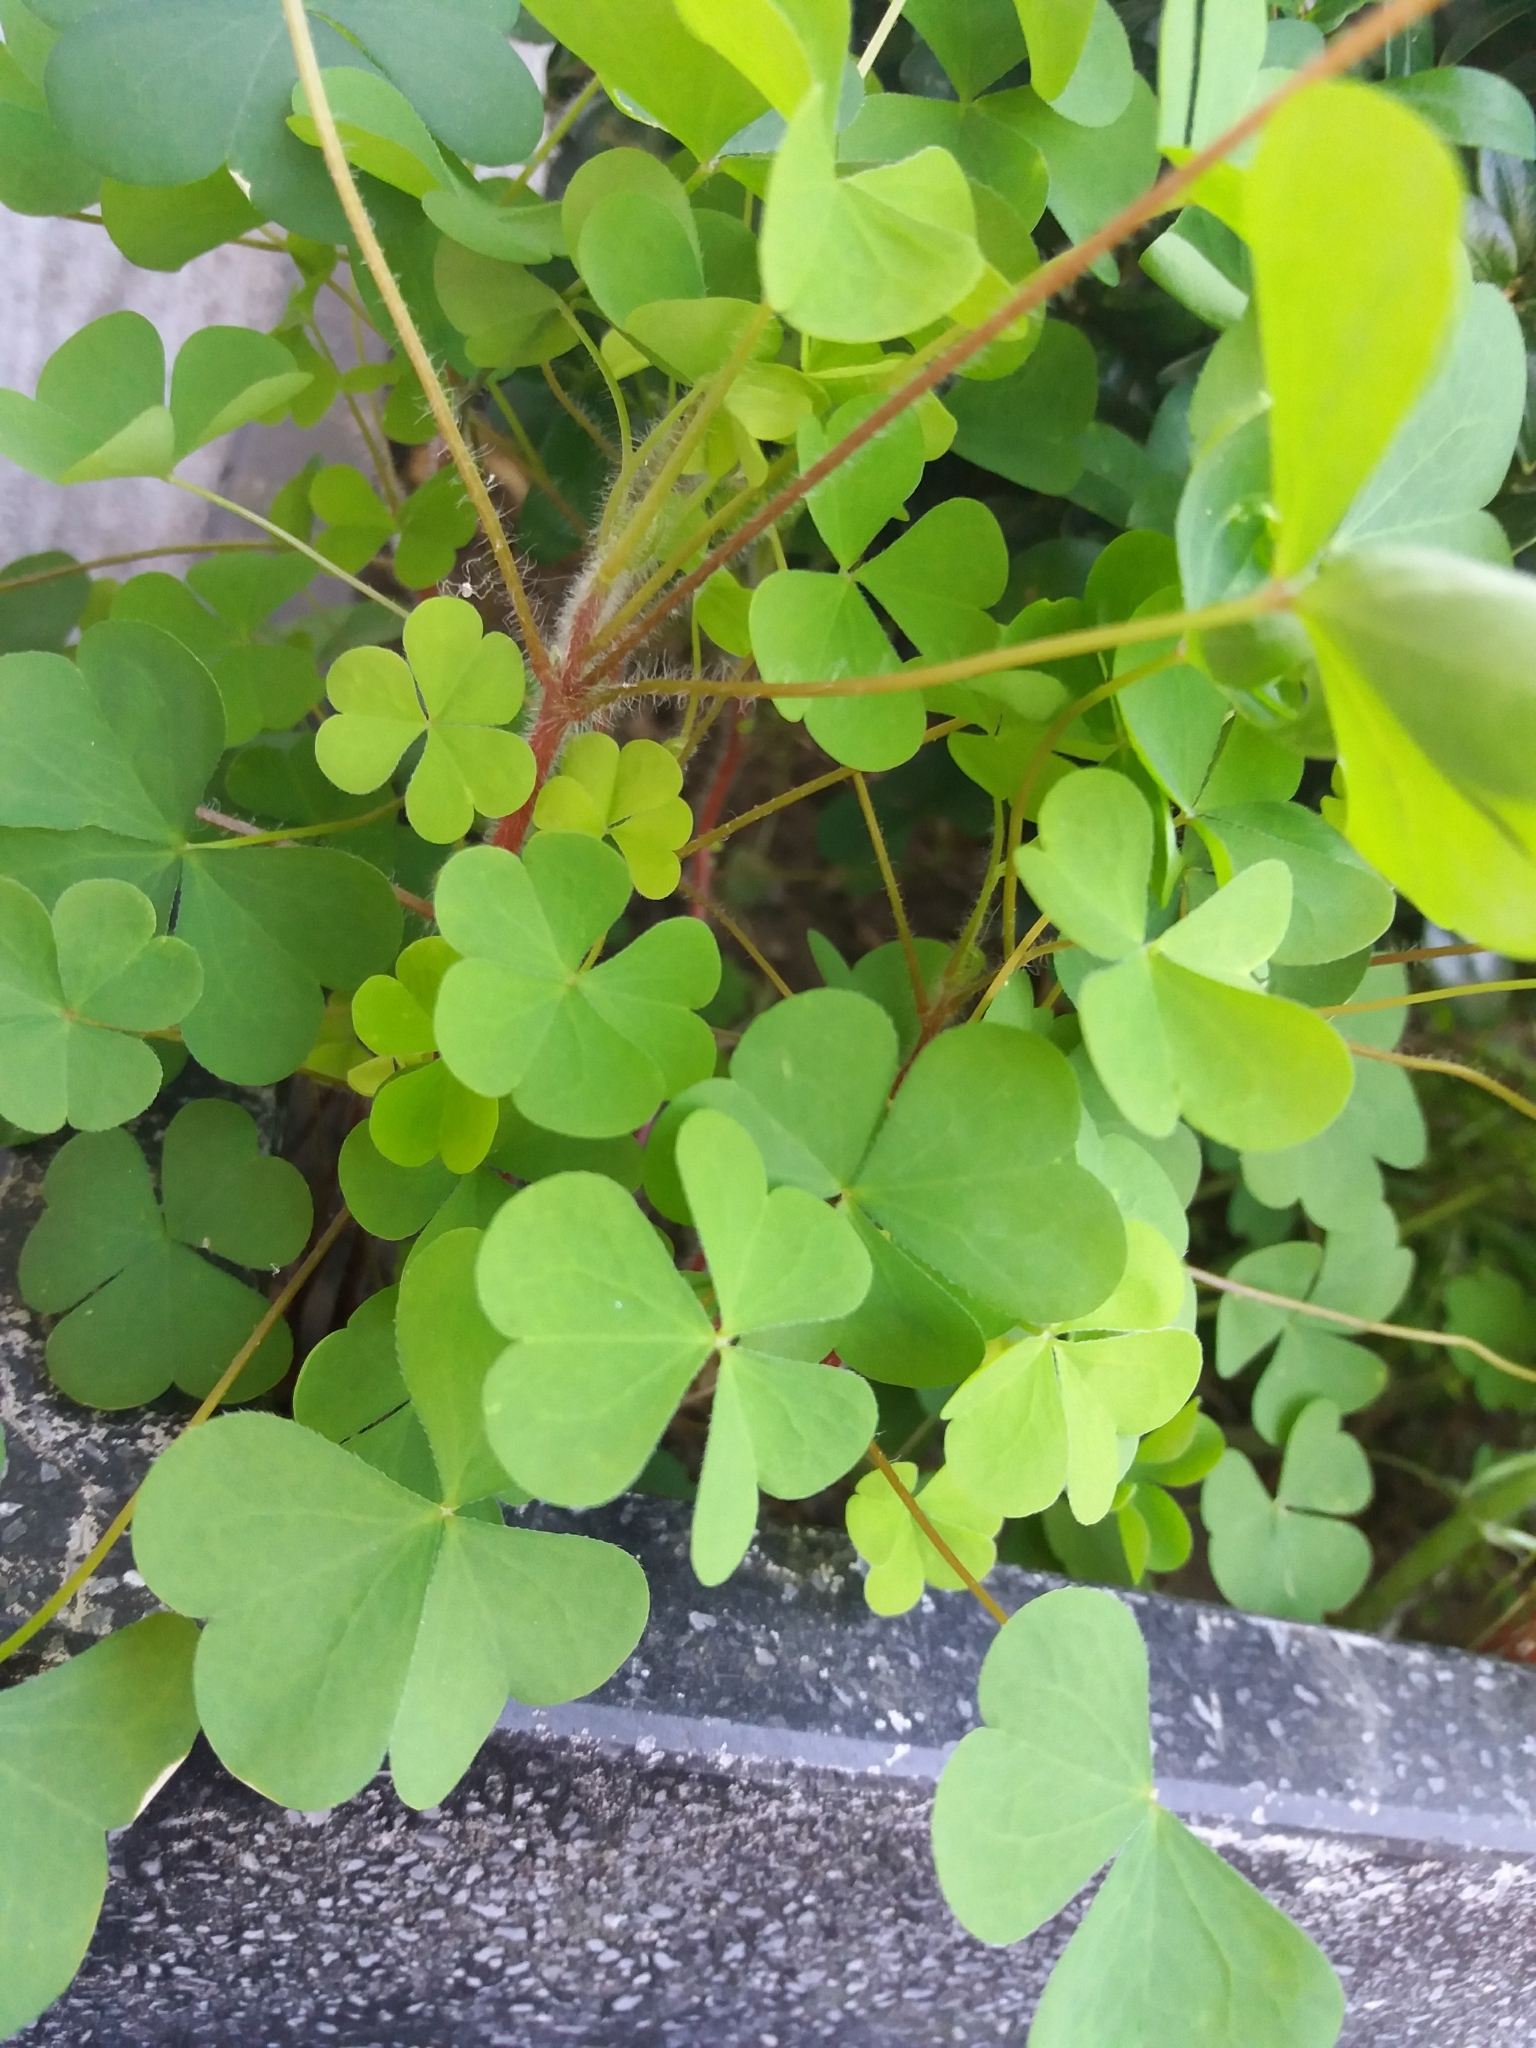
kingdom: Plantae
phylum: Tracheophyta
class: Magnoliopsida
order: Oxalidales
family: Oxalidaceae
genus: Oxalis
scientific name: Oxalis stricta
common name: Upright yellow-sorrel
